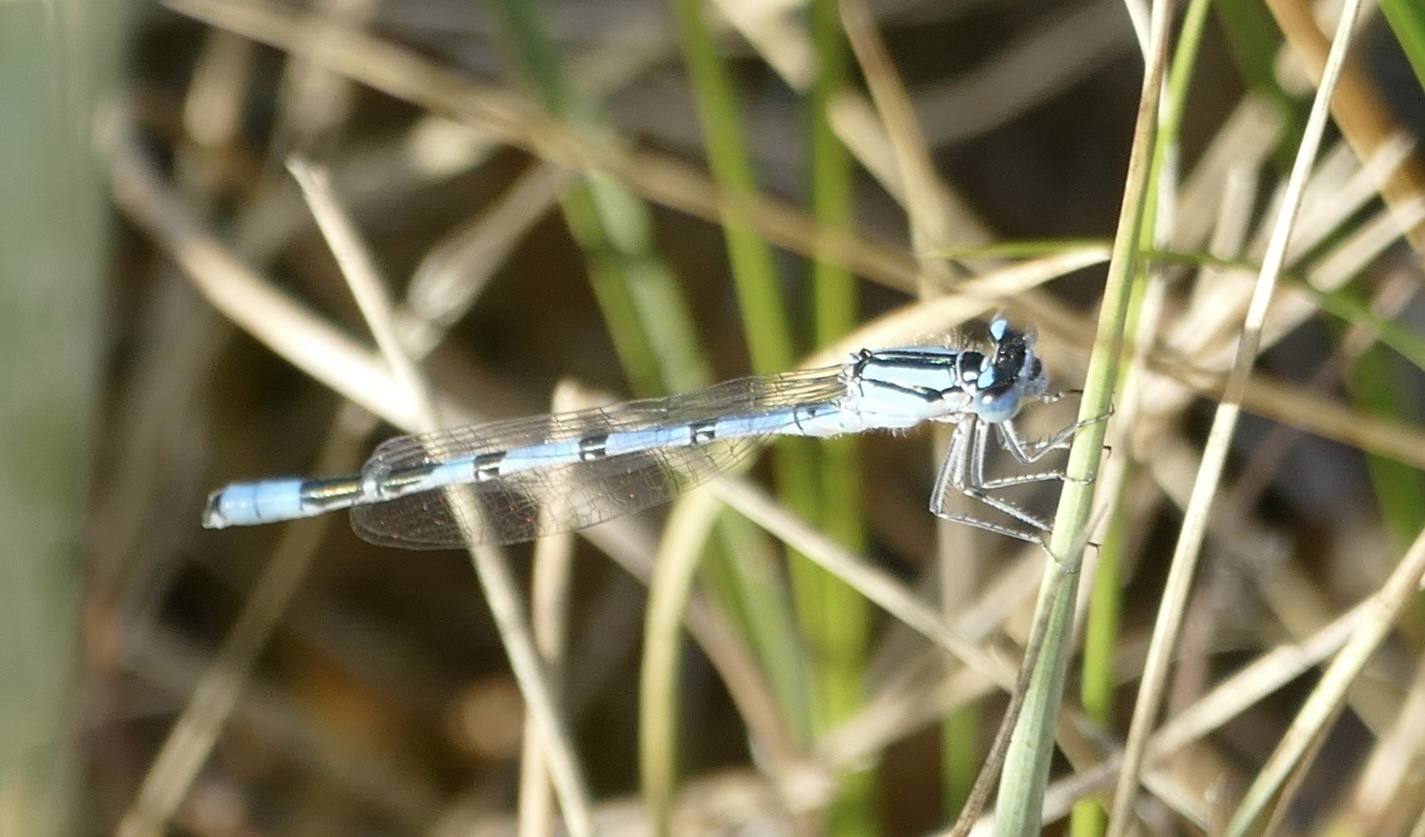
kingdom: Animalia
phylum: Arthropoda
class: Insecta
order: Odonata
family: Coenagrionidae
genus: Enallagma
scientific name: Enallagma cyathigerum
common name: Common blue damselfly
